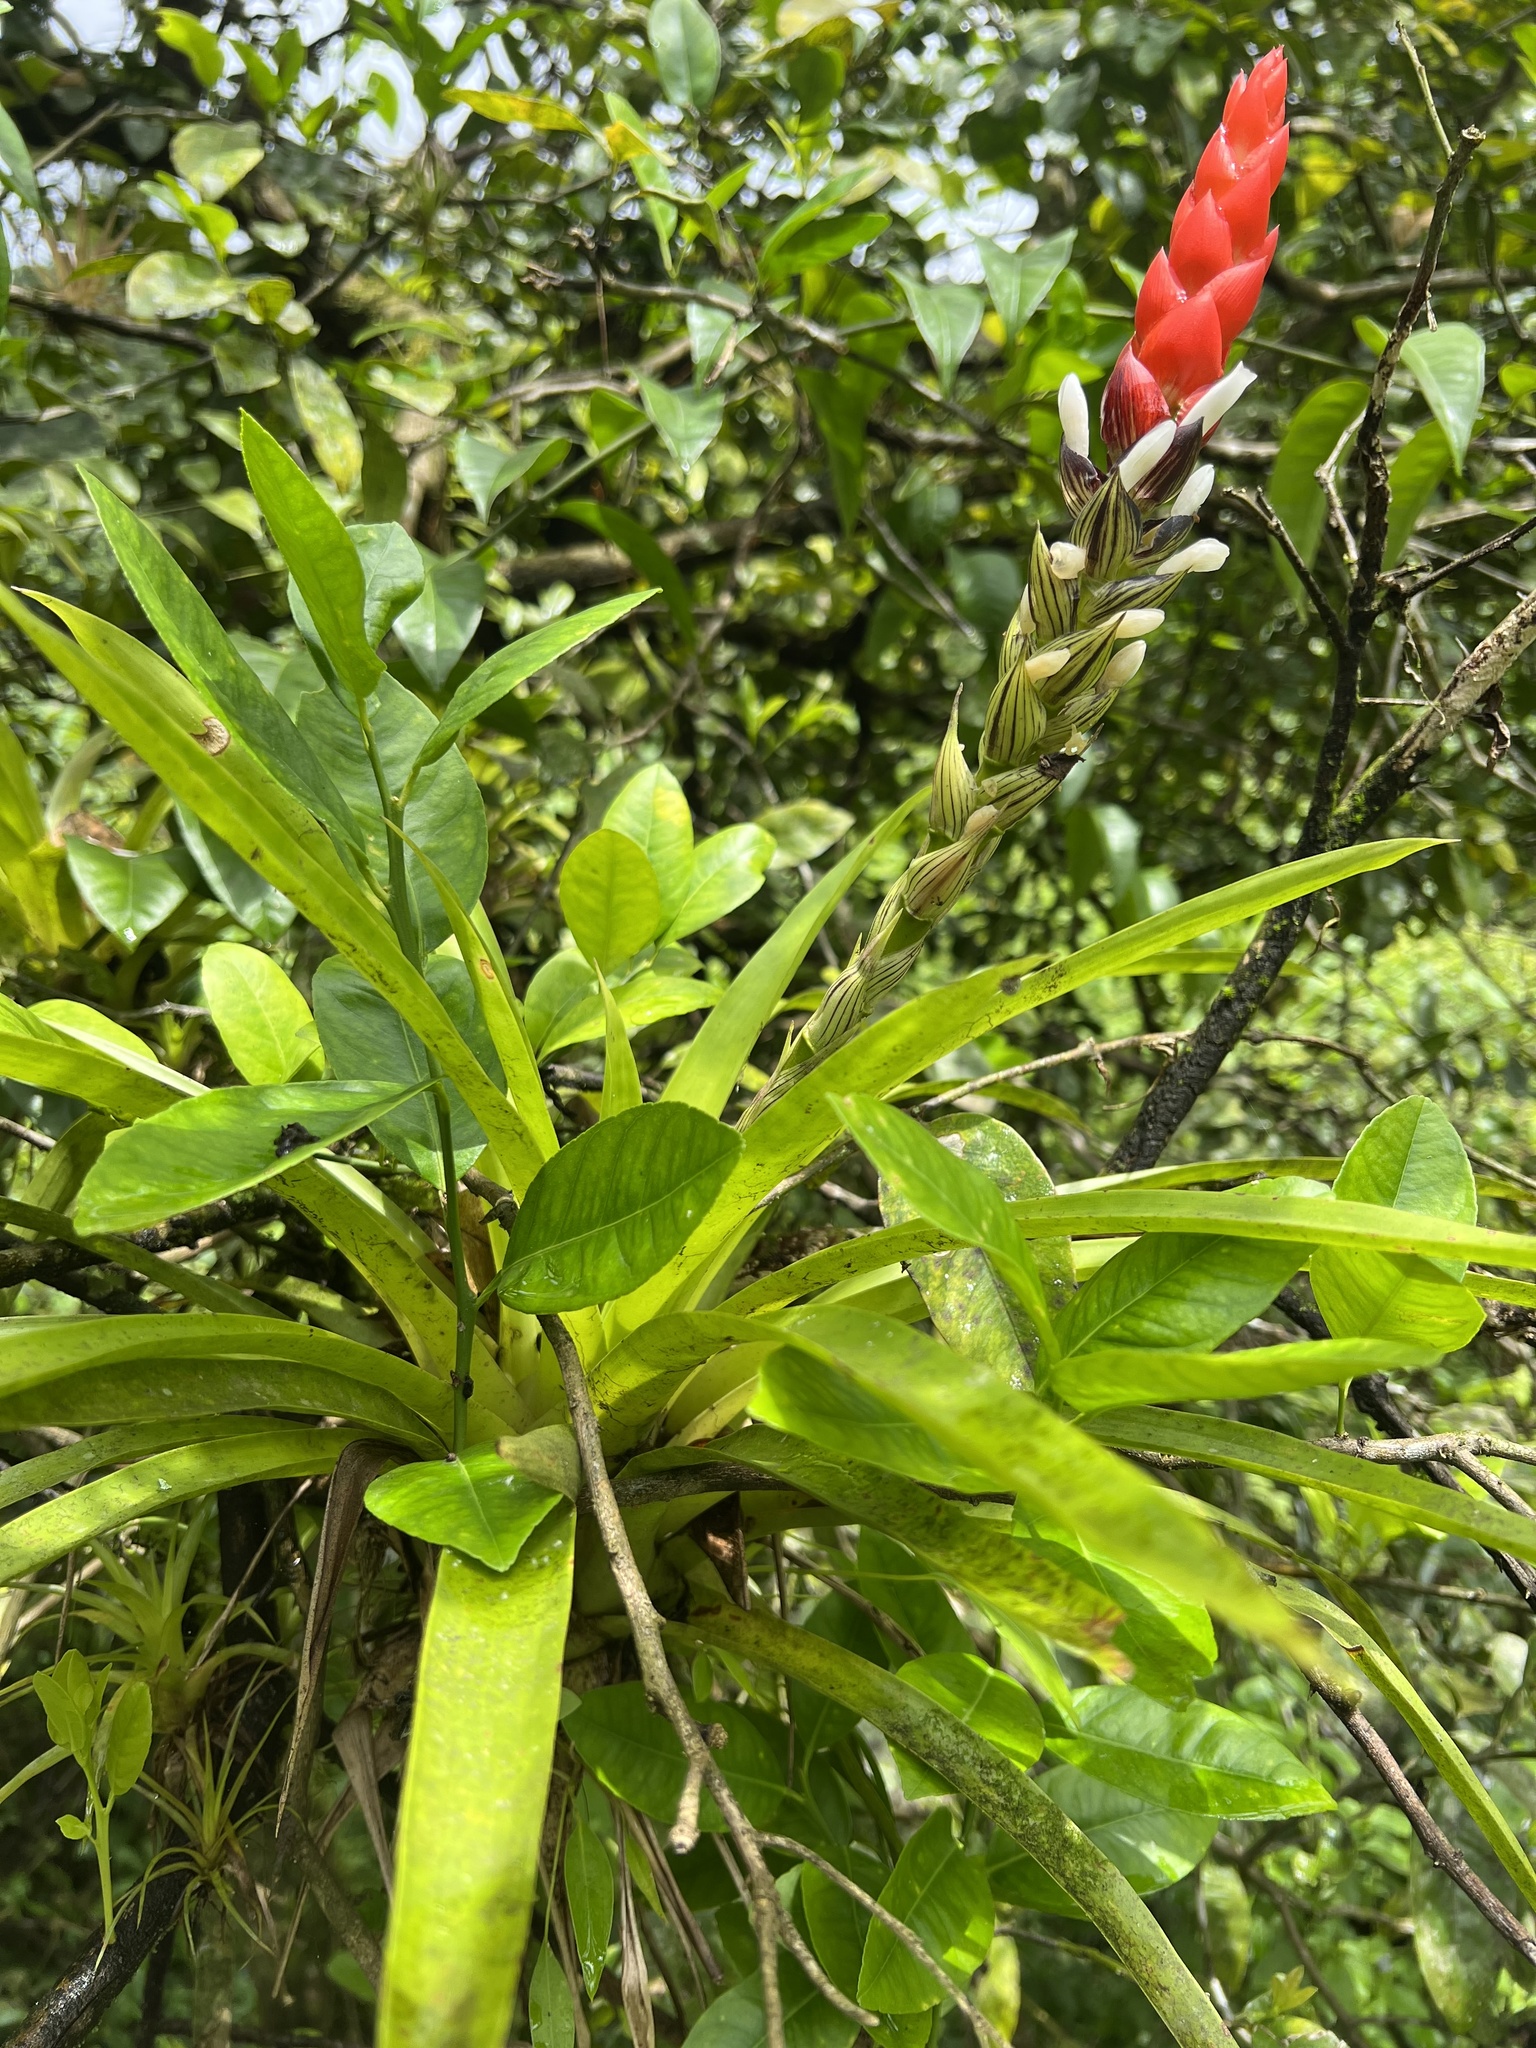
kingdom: Plantae
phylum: Tracheophyta
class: Liliopsida
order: Poales
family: Bromeliaceae
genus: Guzmania
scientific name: Guzmania monostachia
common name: West indian tufted airplant
